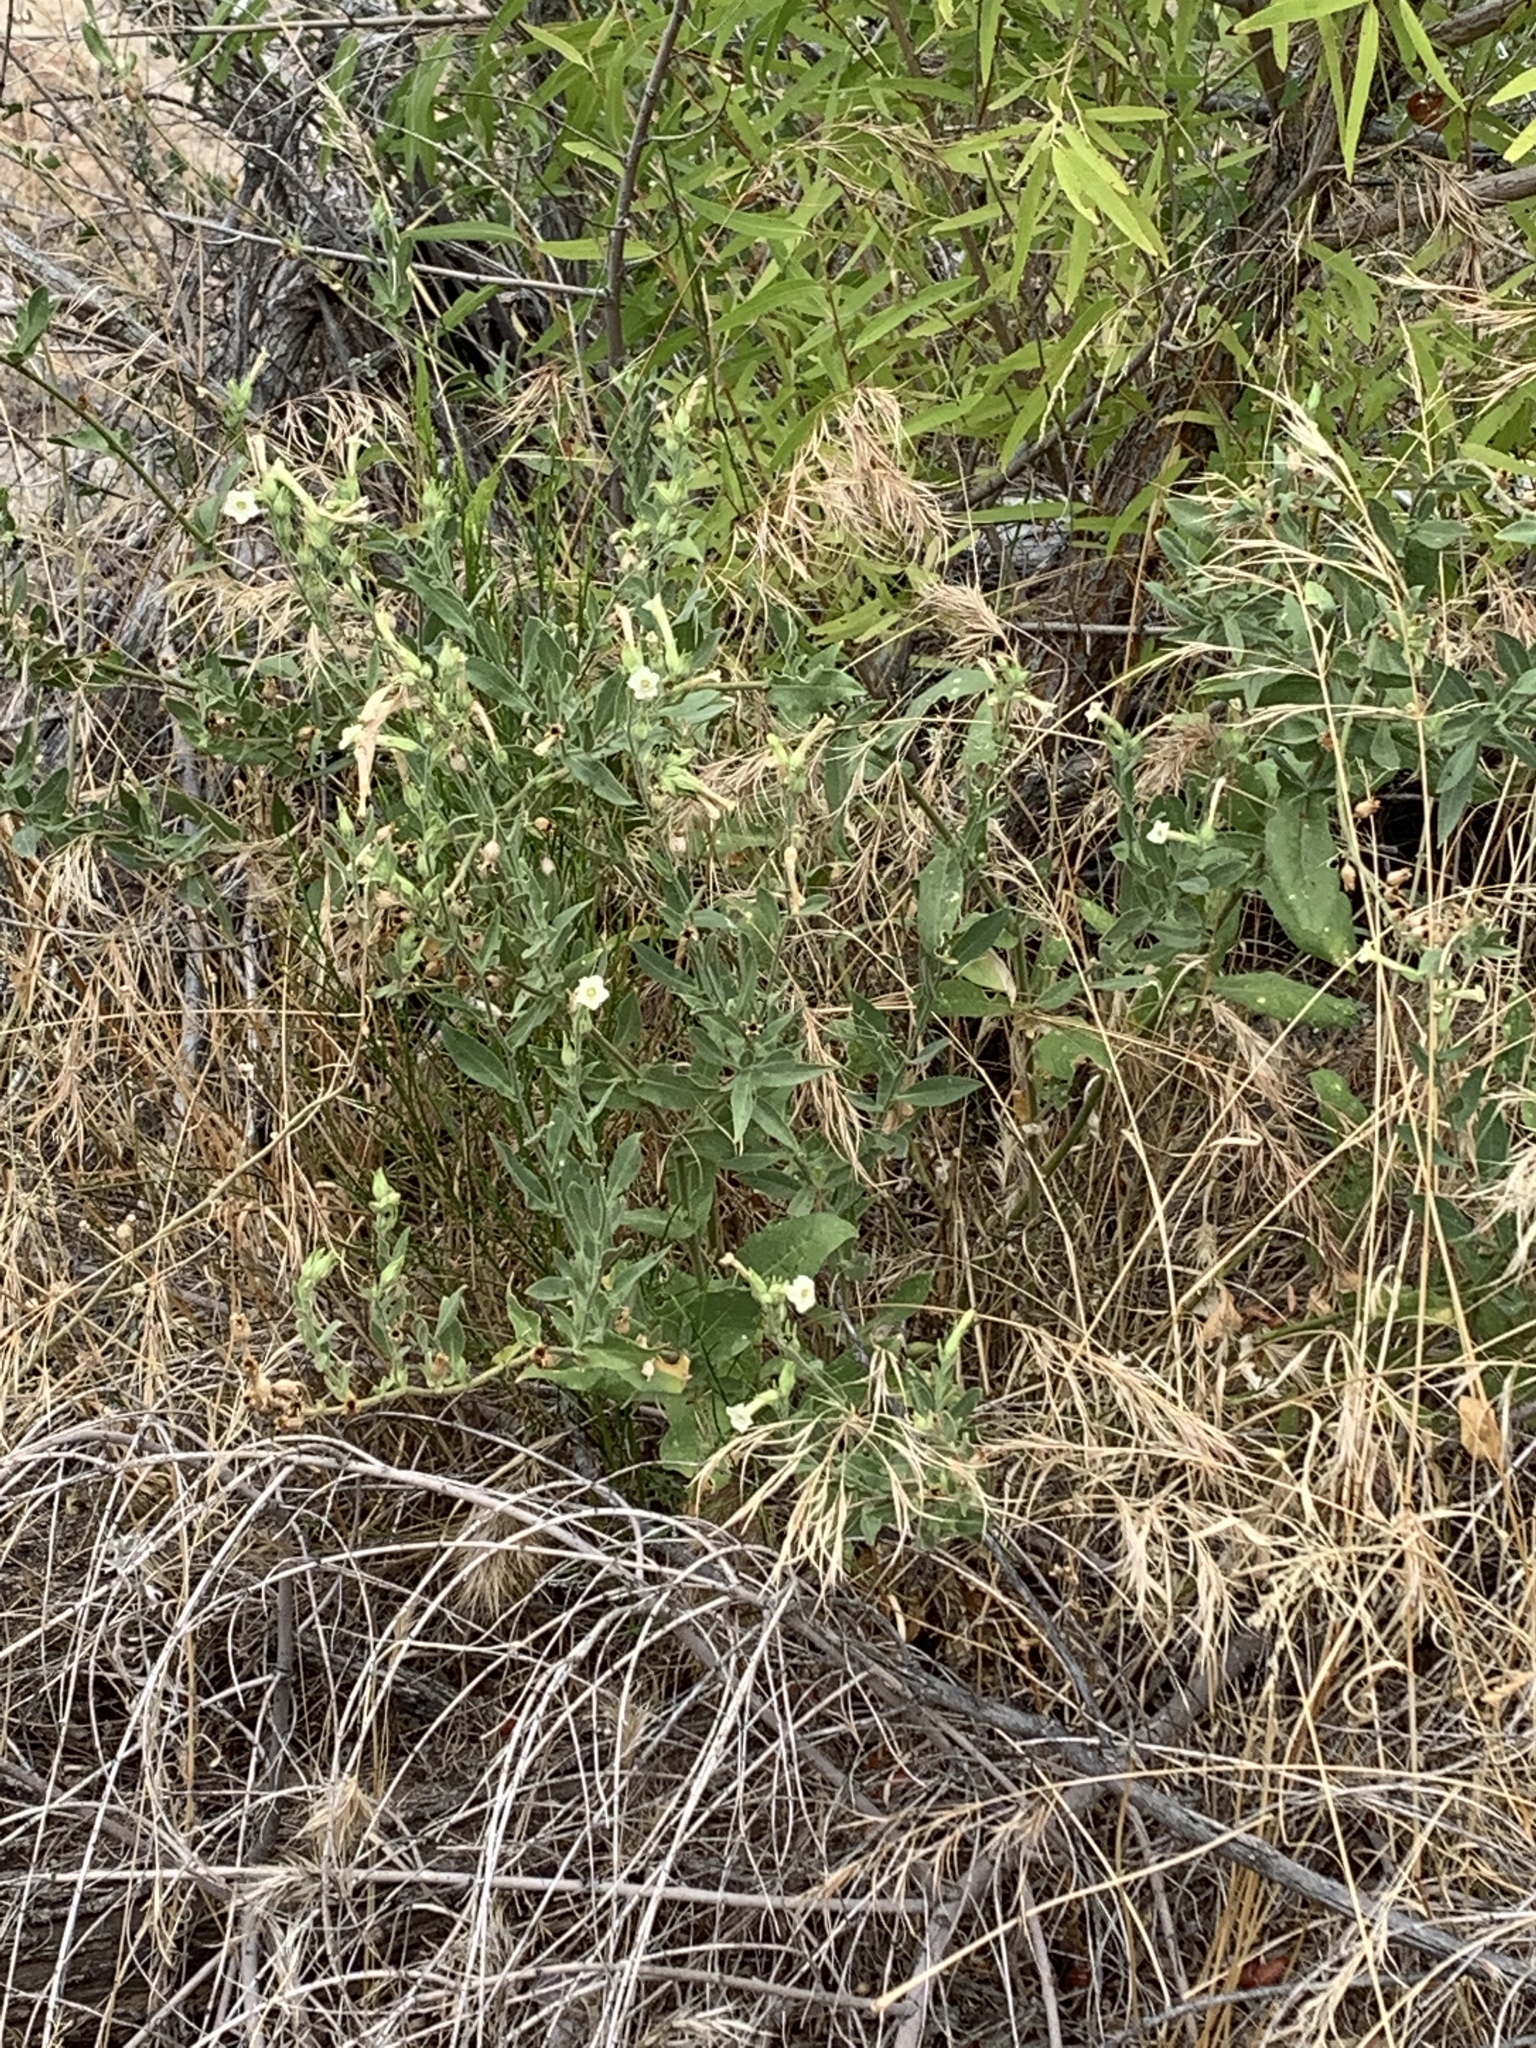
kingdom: Plantae
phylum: Tracheophyta
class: Magnoliopsida
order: Solanales
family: Solanaceae
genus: Nicotiana
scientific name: Nicotiana obtusifolia
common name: Desert tobacco
